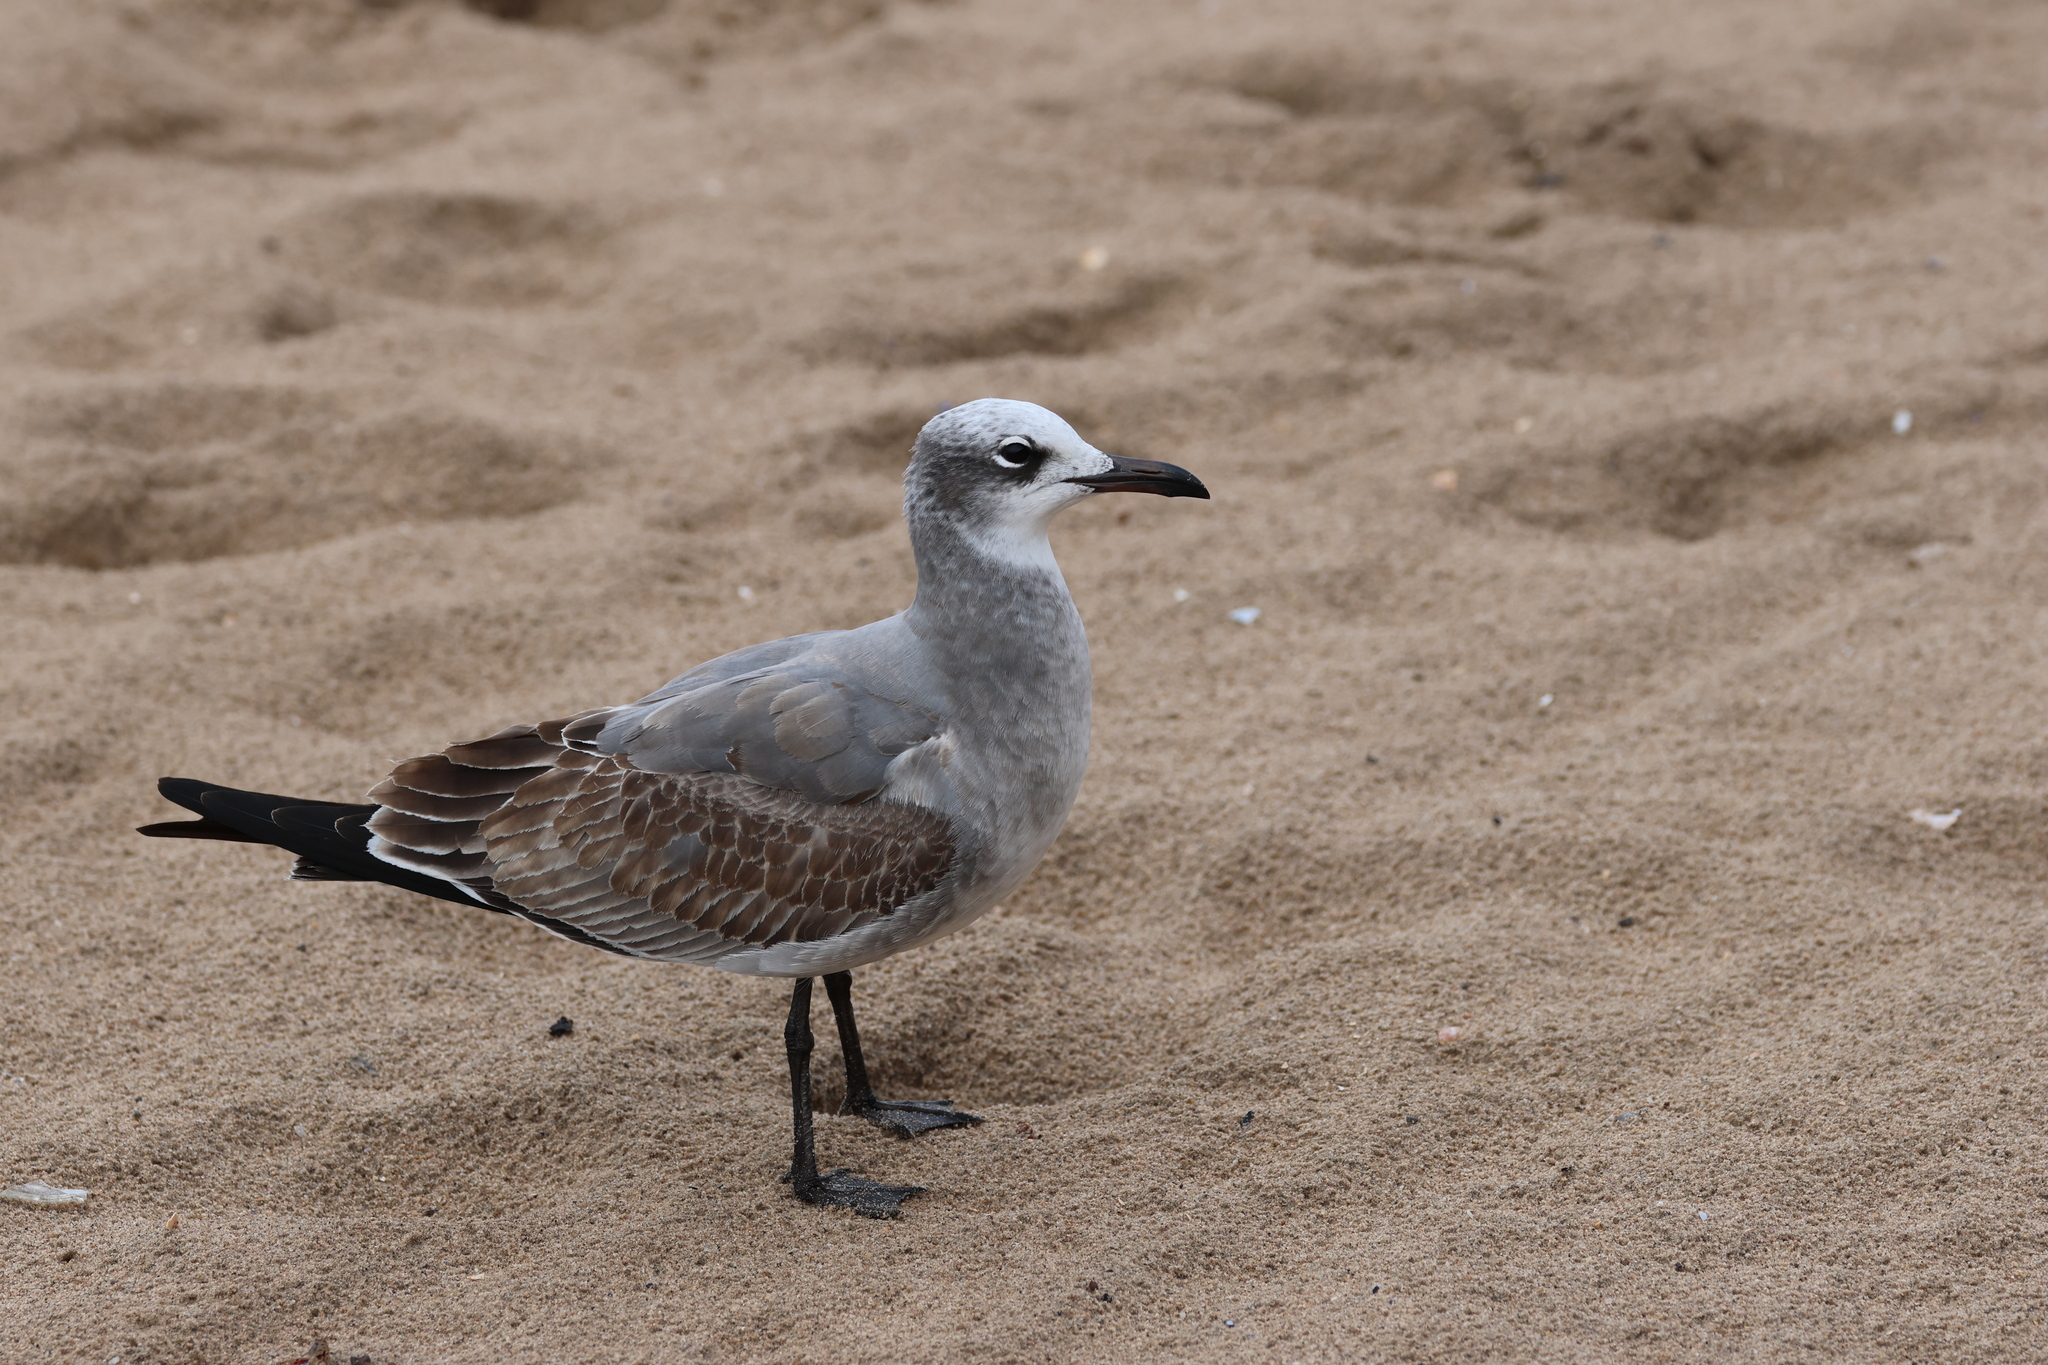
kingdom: Animalia
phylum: Chordata
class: Aves
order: Charadriiformes
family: Laridae
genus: Leucophaeus
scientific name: Leucophaeus atricilla
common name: Laughing gull
